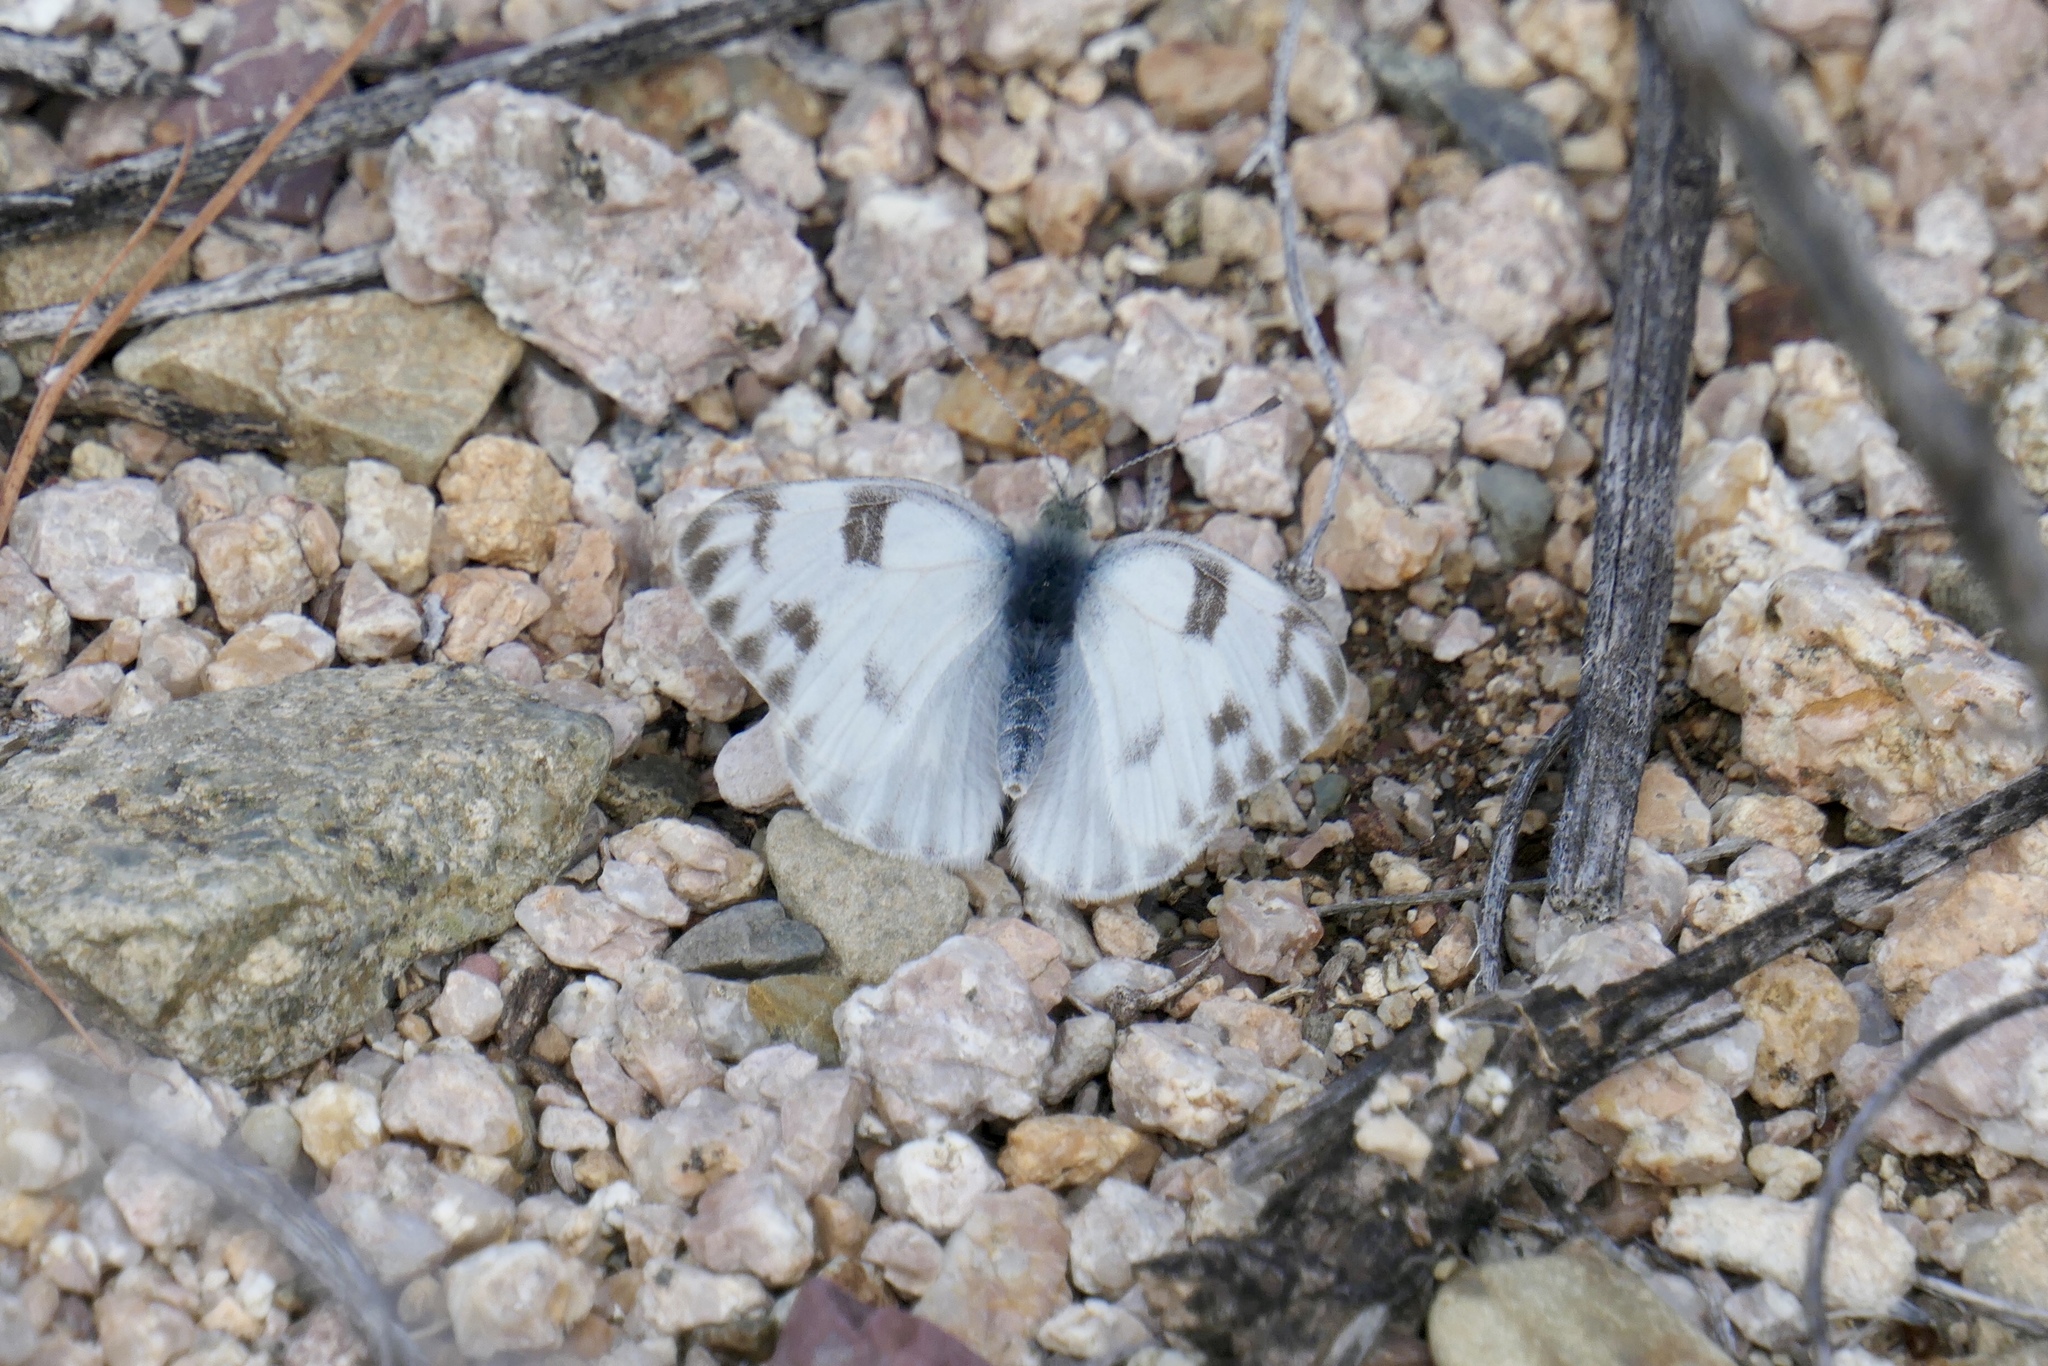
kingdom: Animalia
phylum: Arthropoda
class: Insecta
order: Lepidoptera
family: Pieridae
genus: Pontia
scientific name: Pontia protodice
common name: Checkered white
